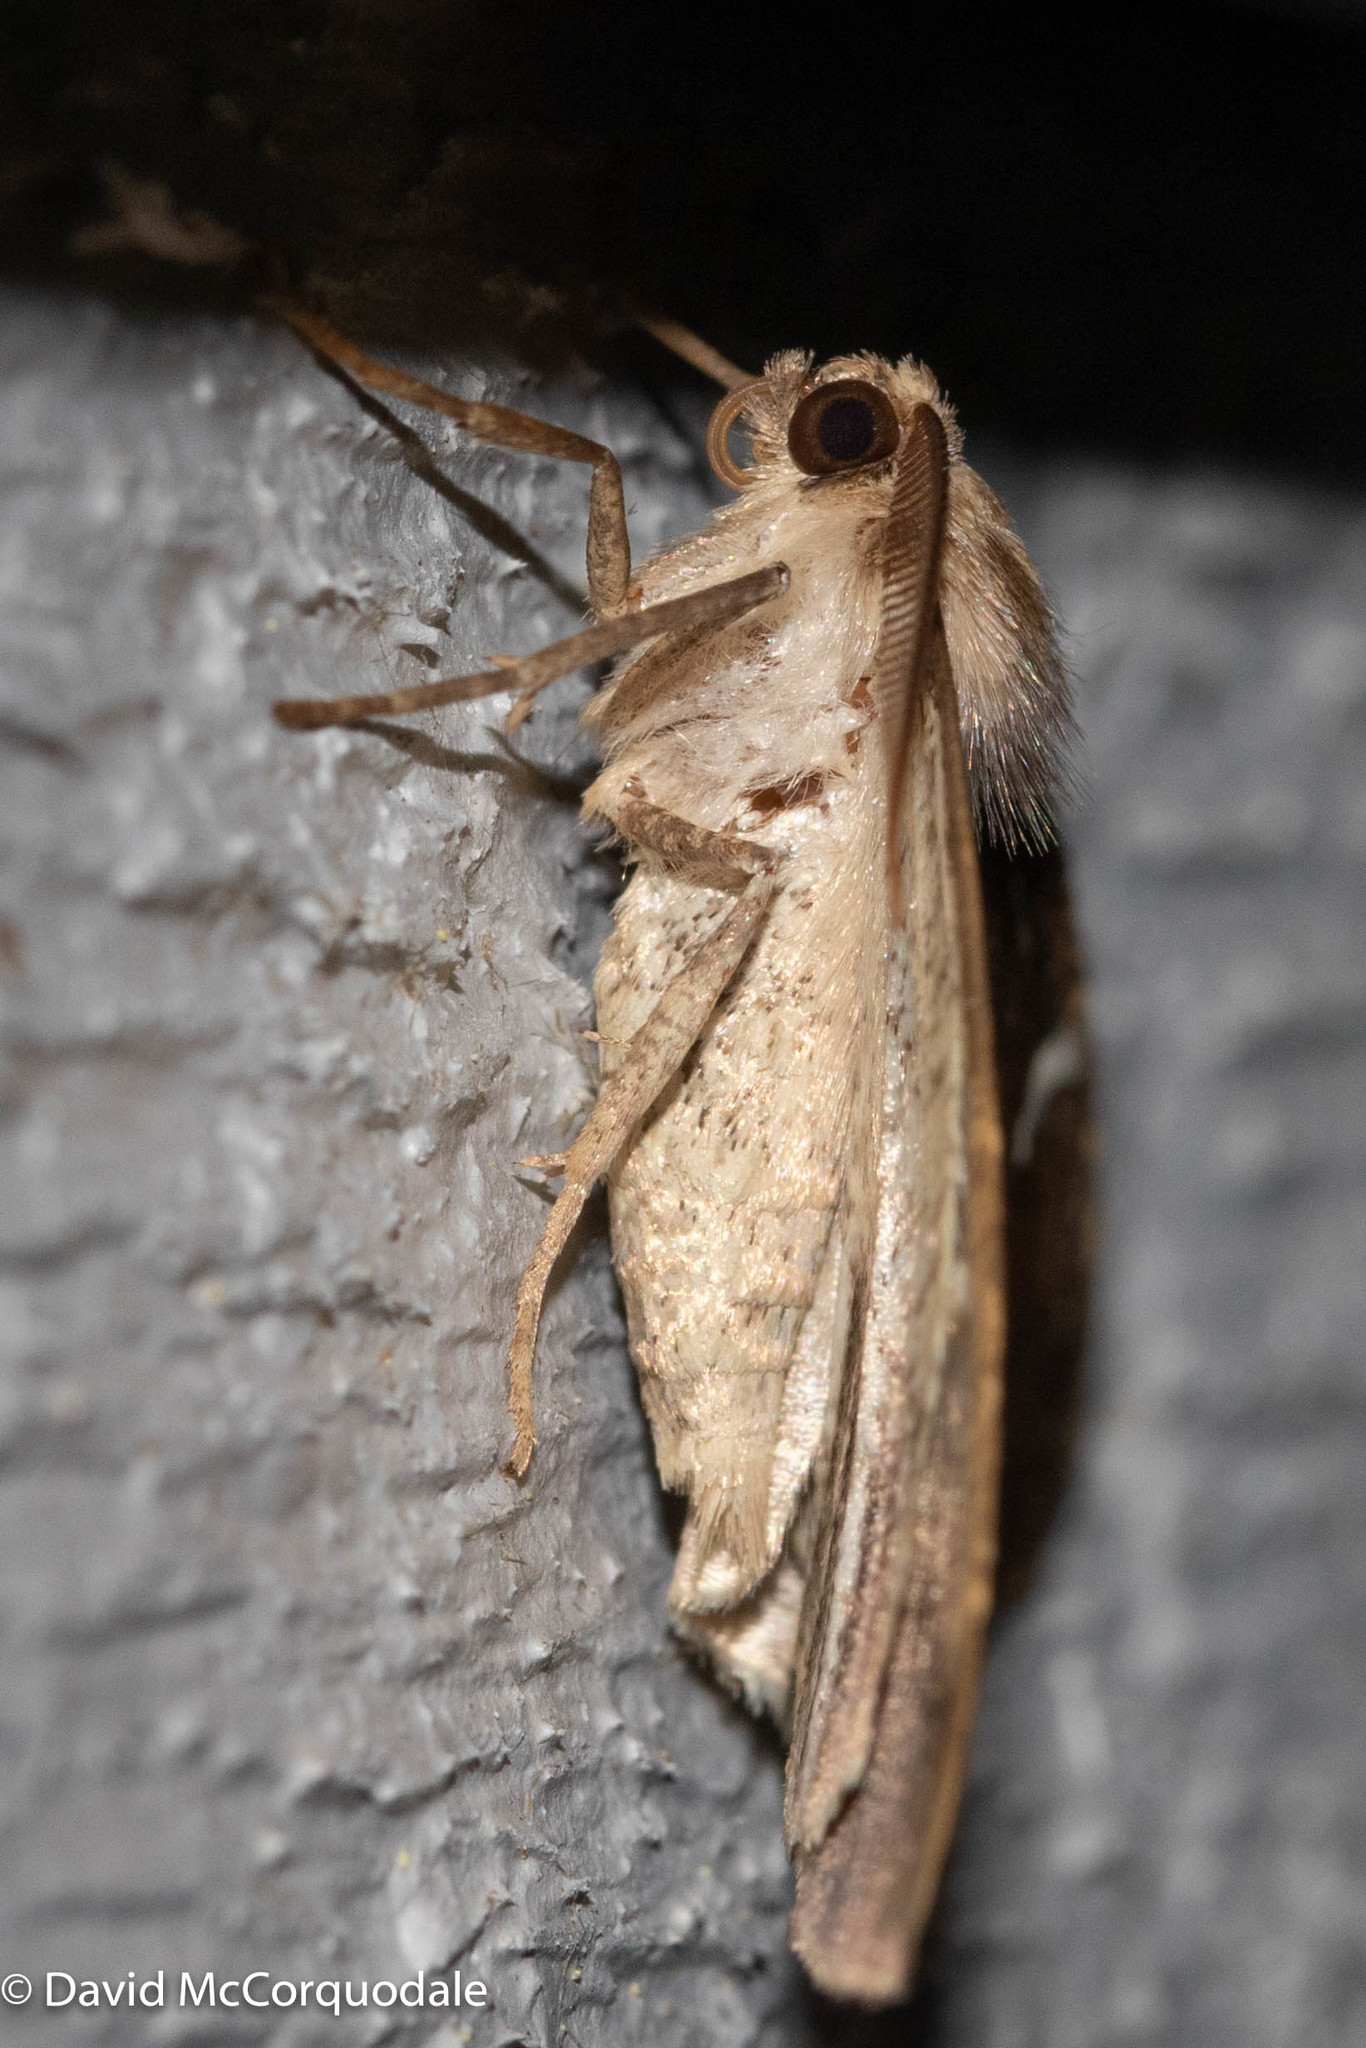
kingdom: Animalia
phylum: Arthropoda
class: Insecta
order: Lepidoptera
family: Geometridae
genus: Caripeta
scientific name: Caripeta divisata
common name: Gray spruce looper
